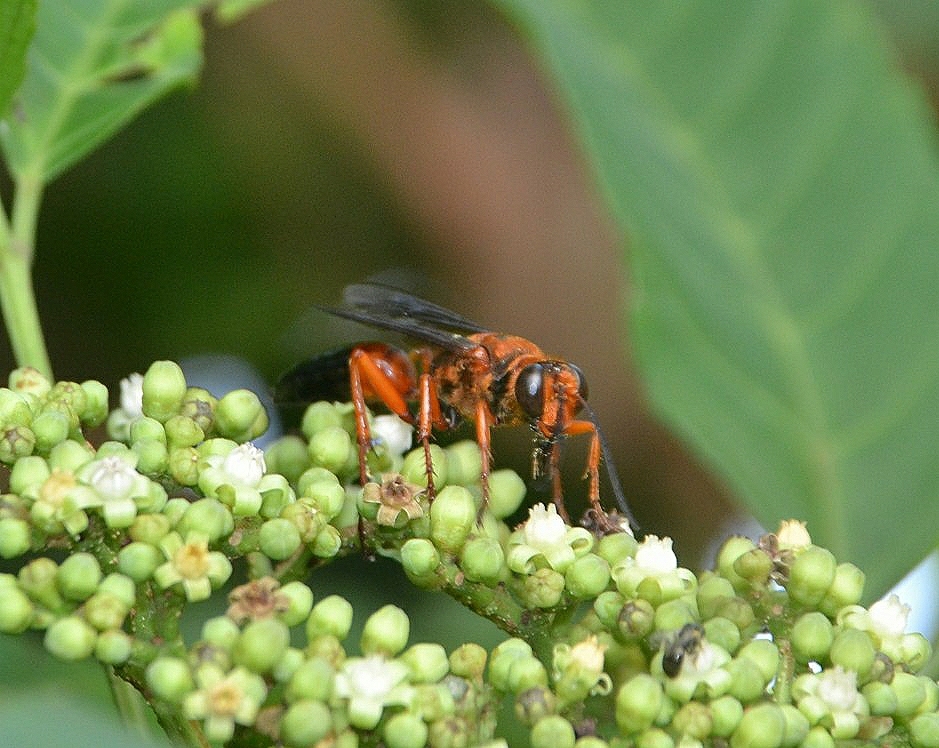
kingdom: Animalia
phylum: Arthropoda
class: Insecta
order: Hymenoptera
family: Sphecidae
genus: Sphex
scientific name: Sphex sericeus
